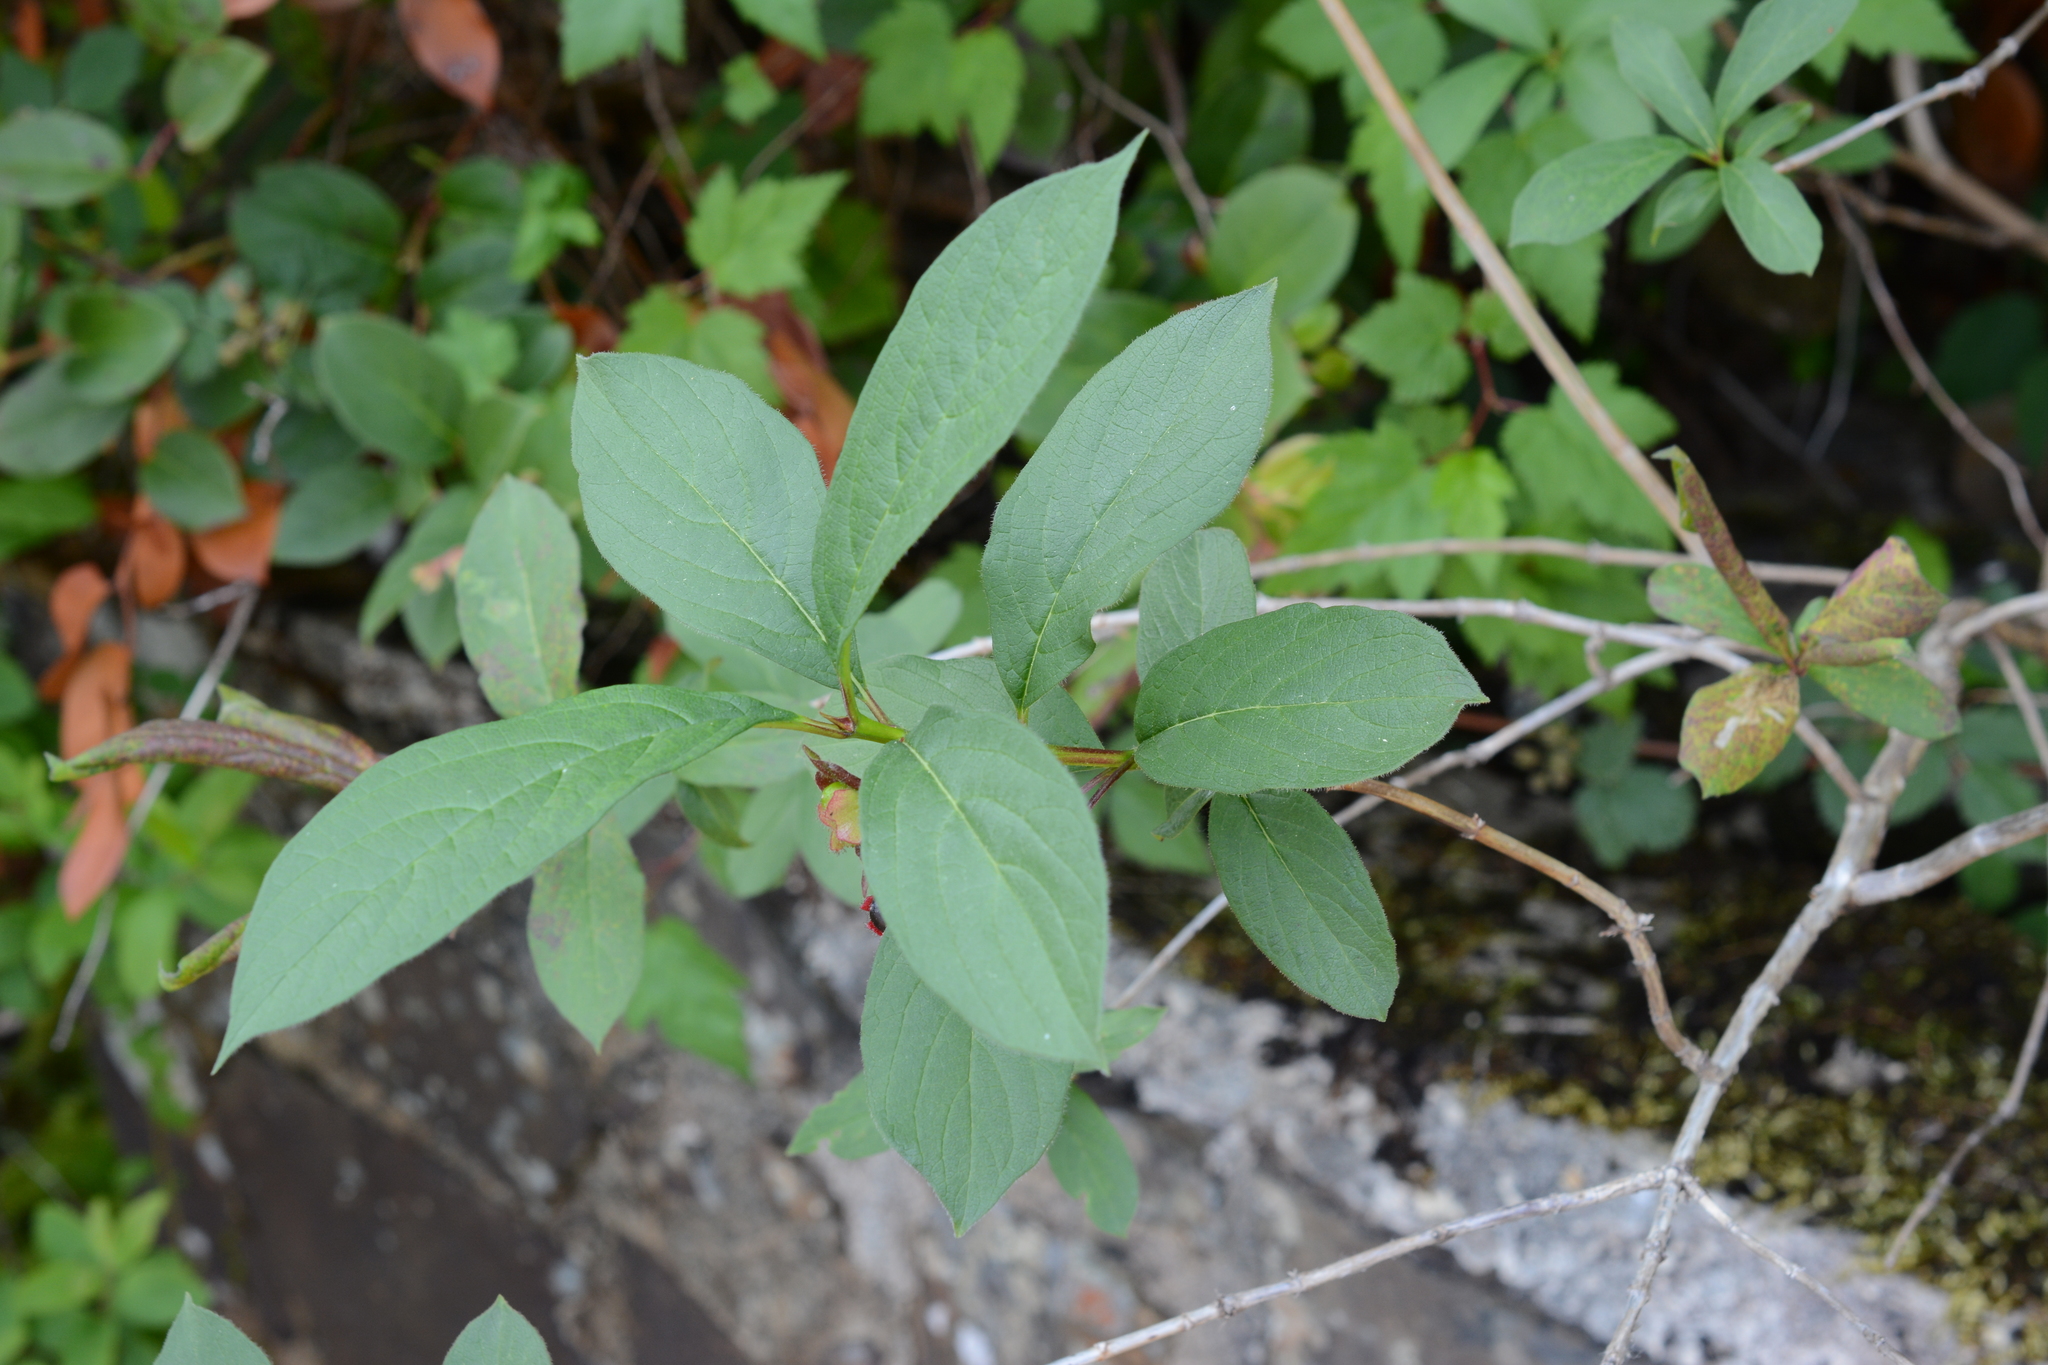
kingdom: Plantae
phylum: Tracheophyta
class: Magnoliopsida
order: Dipsacales
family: Caprifoliaceae
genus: Lonicera
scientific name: Lonicera involucrata
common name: Californian honeysuckle
